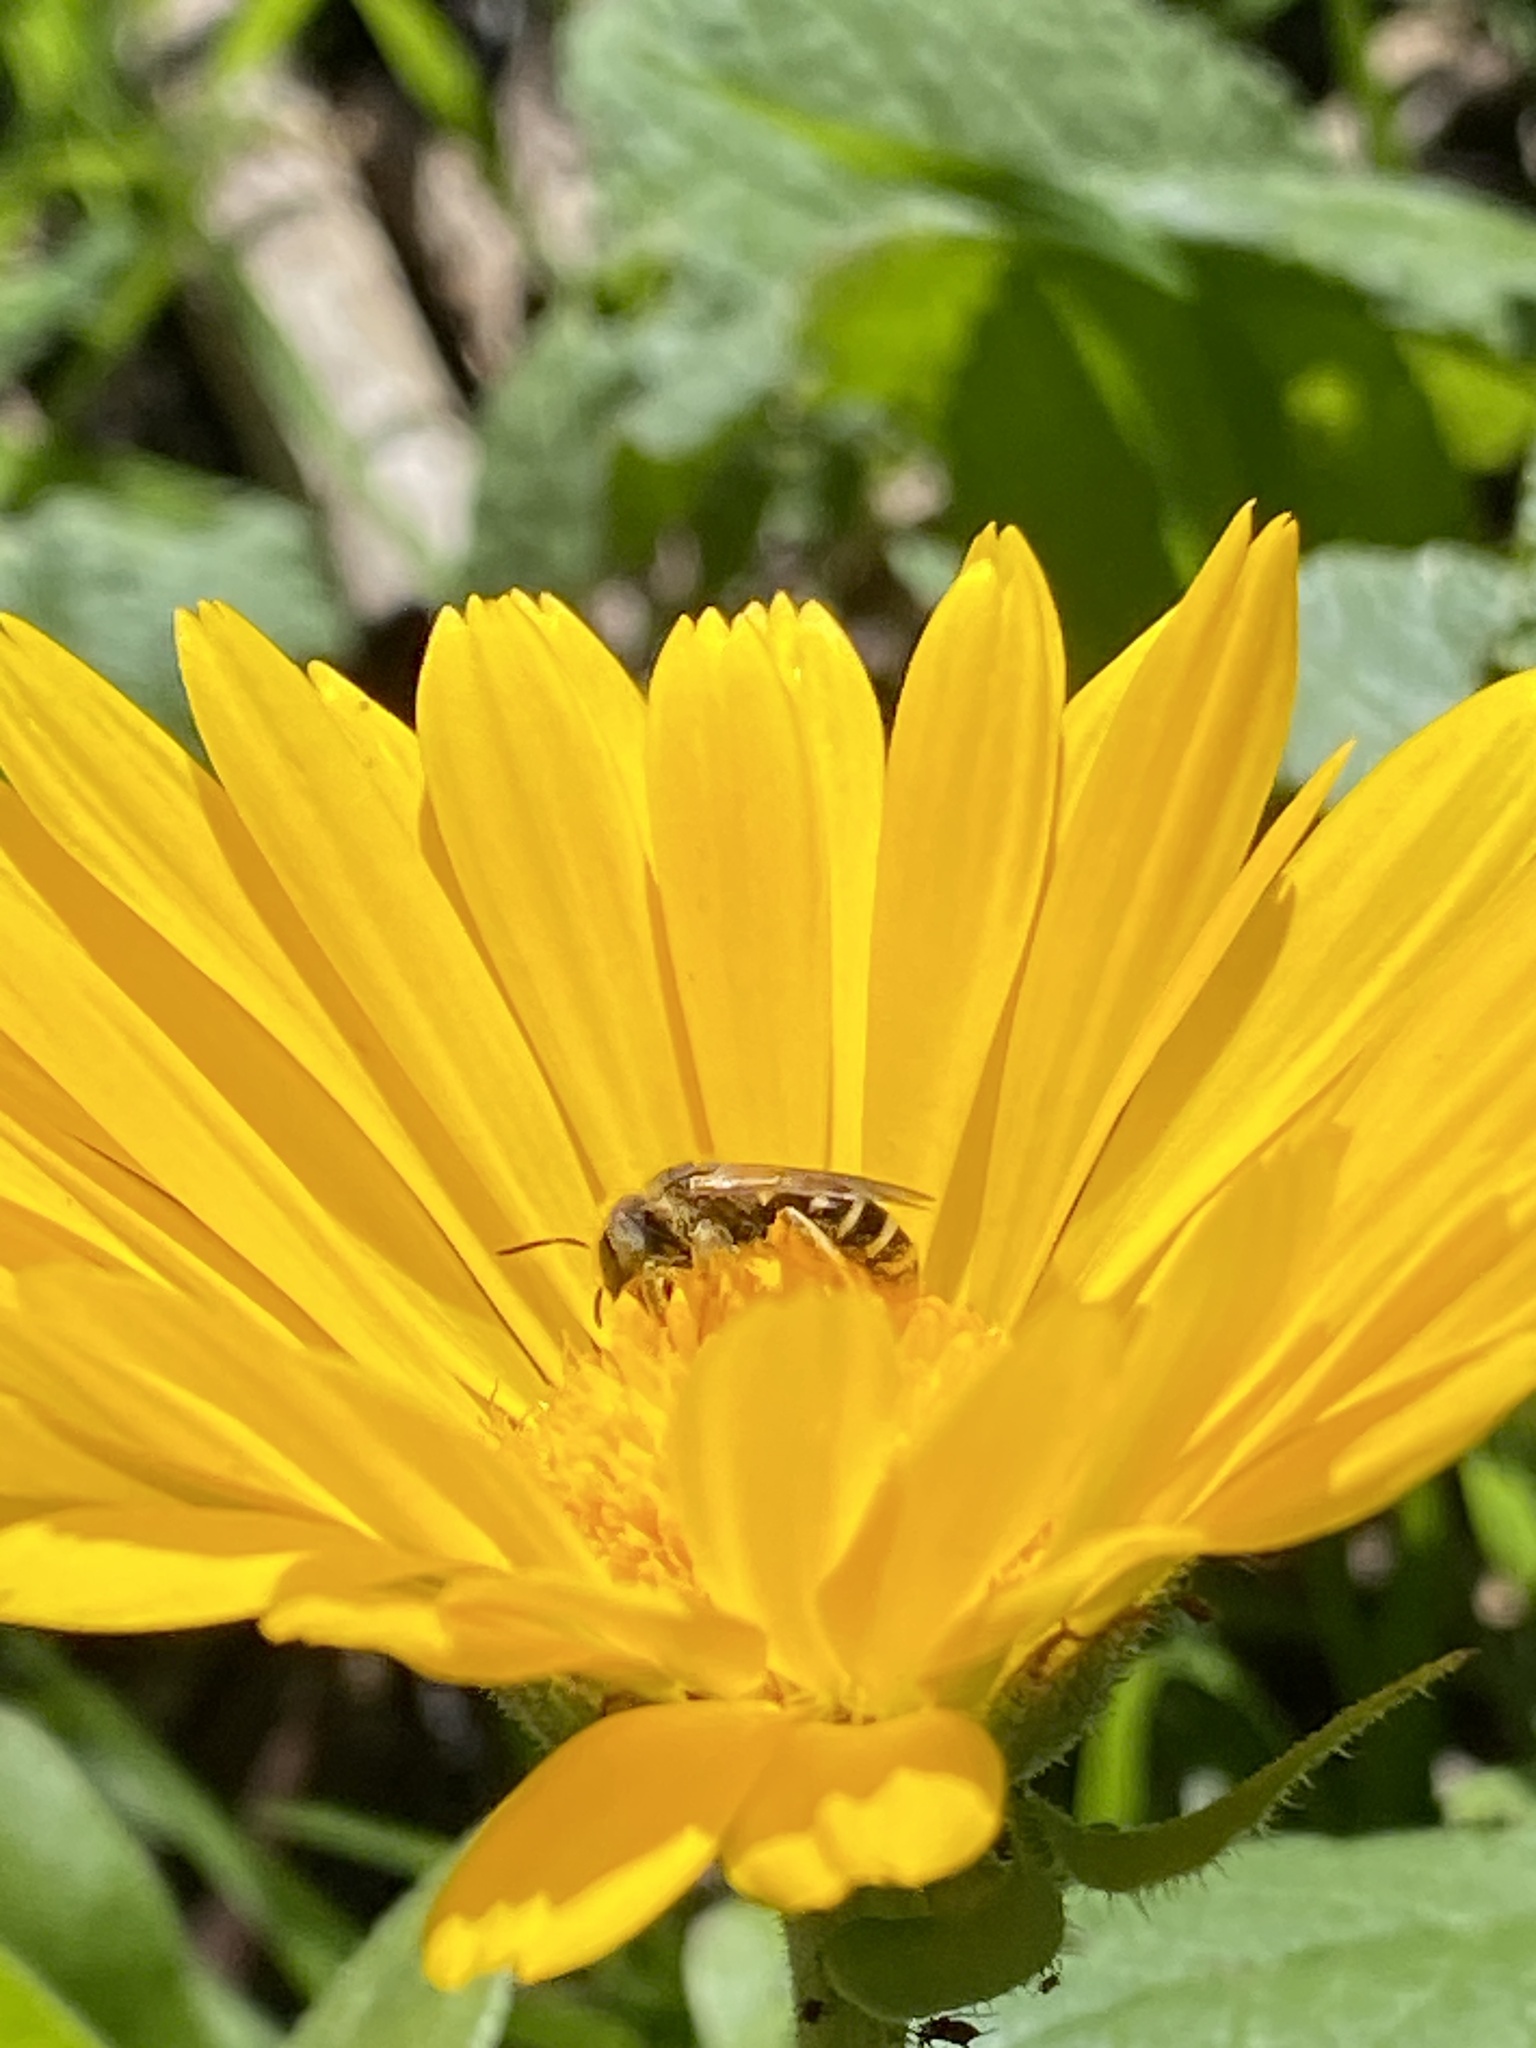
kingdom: Animalia
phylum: Arthropoda
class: Insecta
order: Hymenoptera
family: Halictidae
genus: Halictus
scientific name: Halictus ligatus
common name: Ligated furrow bee
